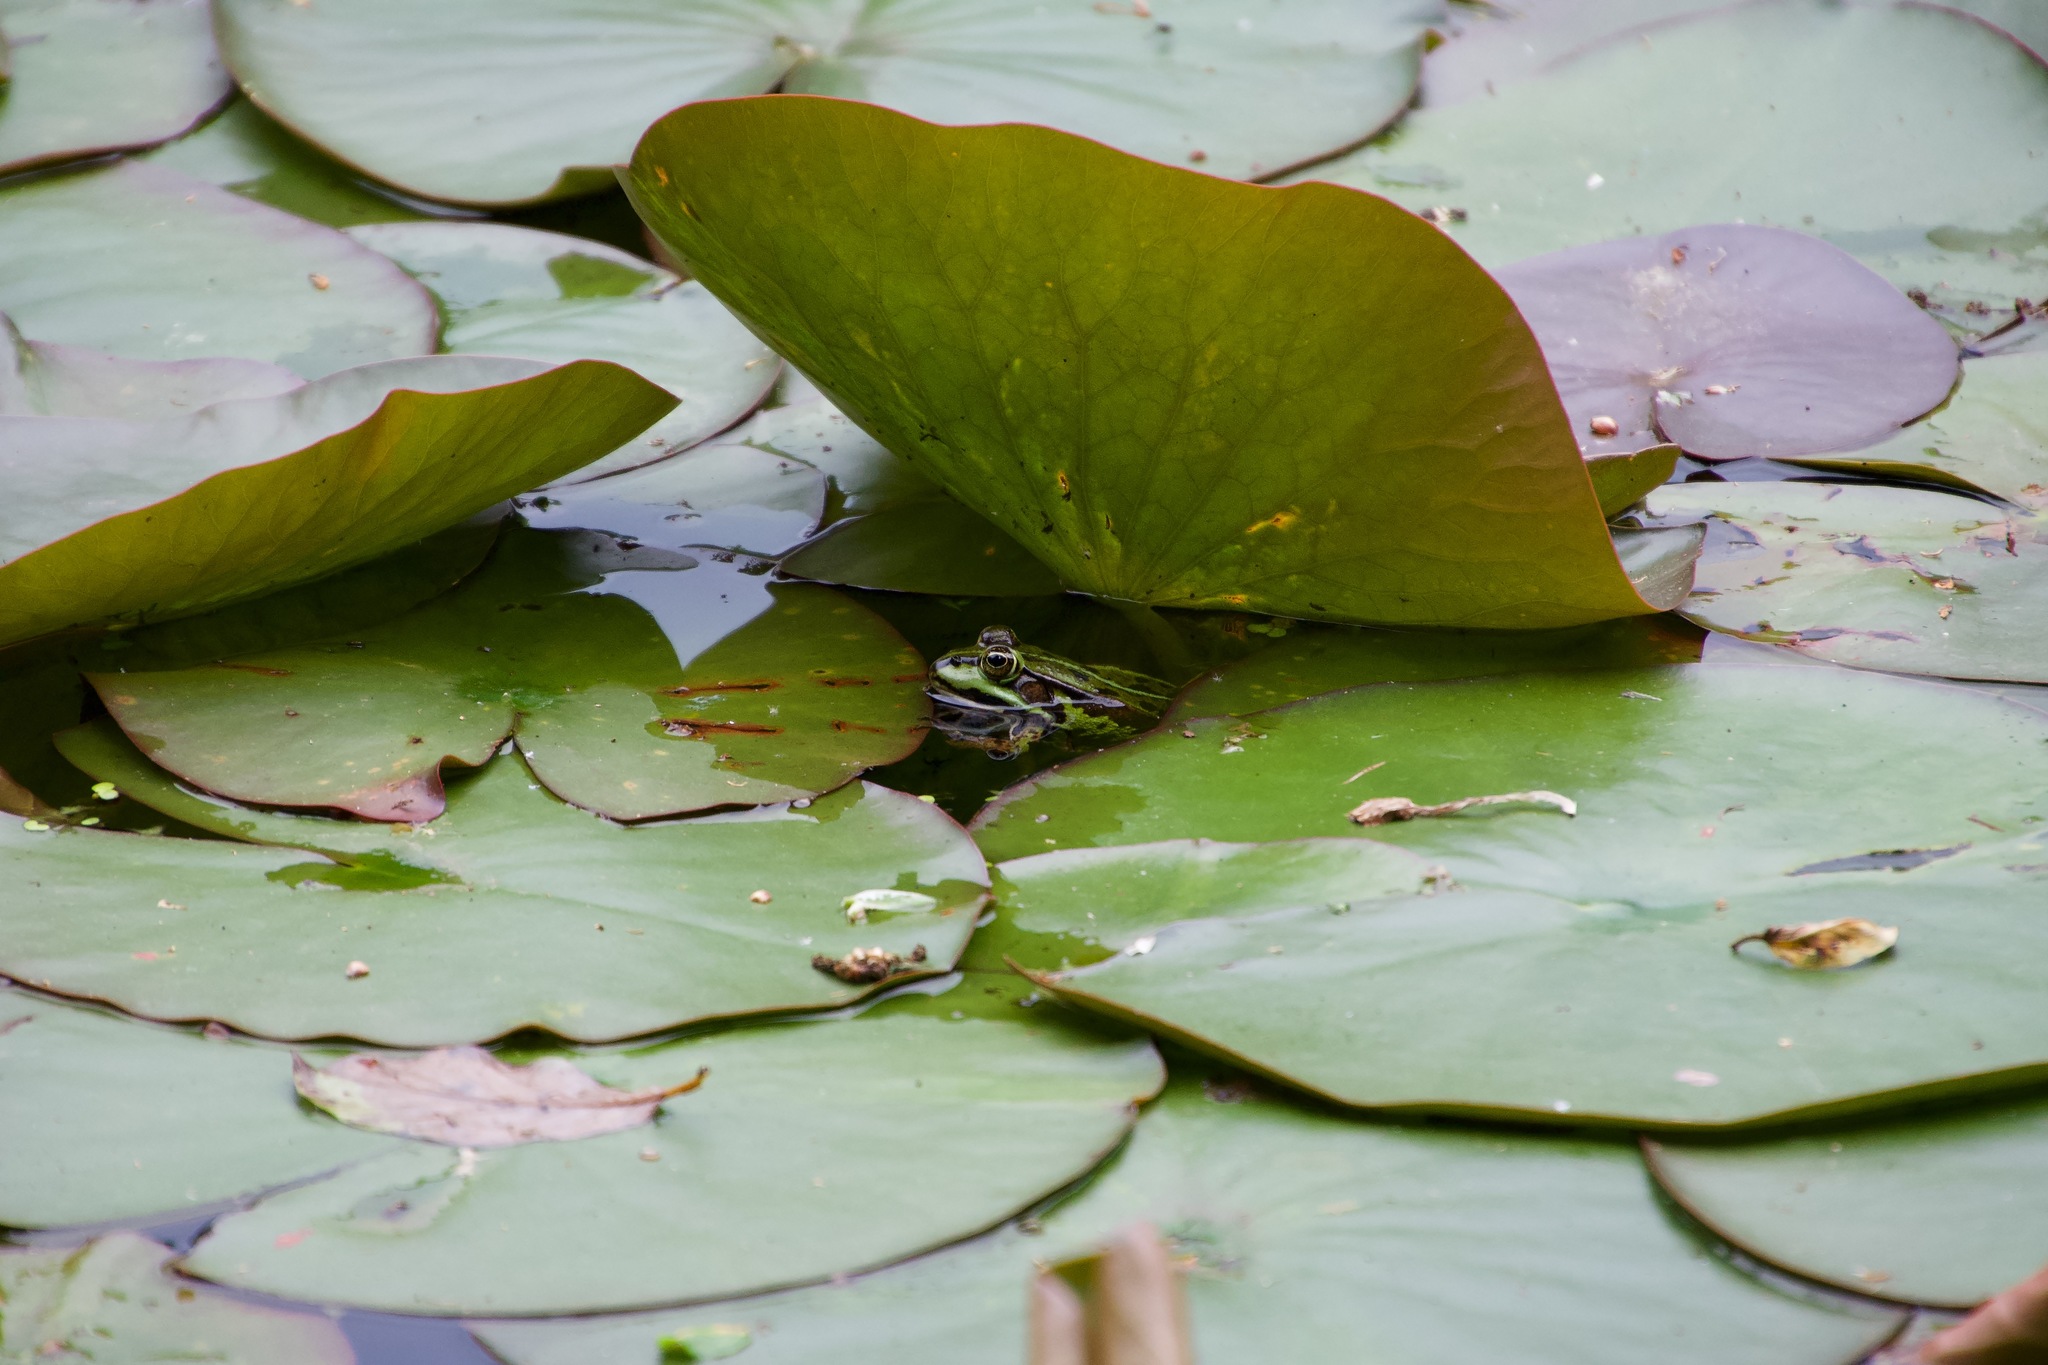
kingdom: Animalia
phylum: Chordata
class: Amphibia
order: Anura
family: Ranidae
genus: Pelophylax
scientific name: Pelophylax lessonae
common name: Pool frog
